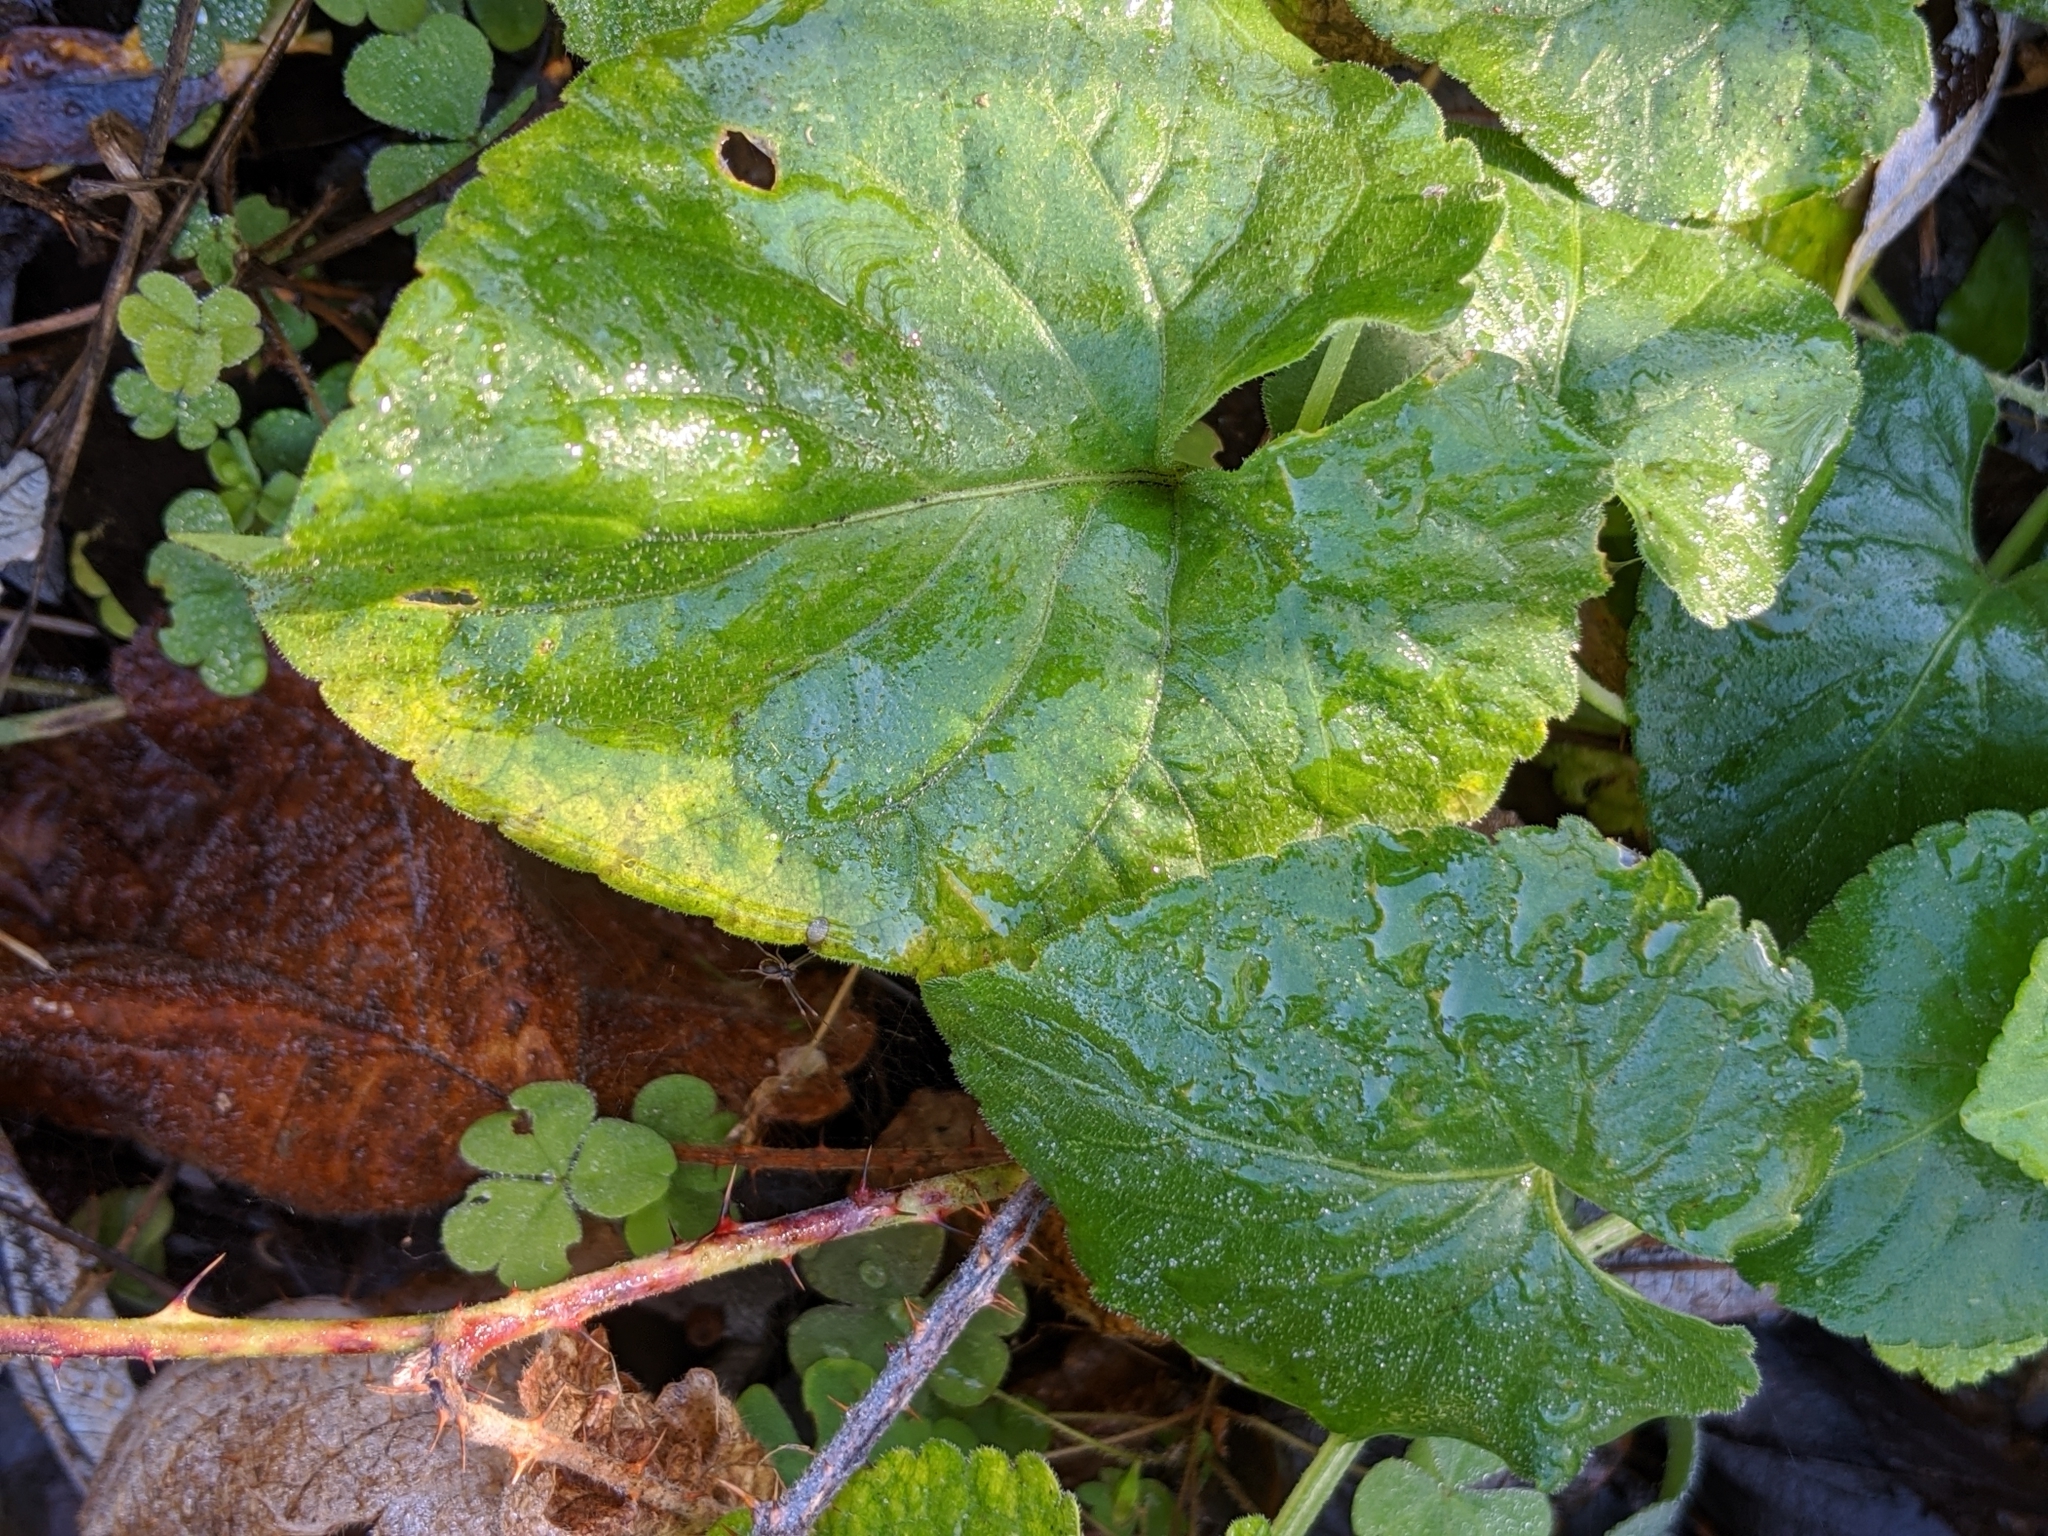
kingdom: Plantae
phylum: Tracheophyta
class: Magnoliopsida
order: Malpighiales
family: Violaceae
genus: Viola
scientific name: Viola odorata
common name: Sweet violet
